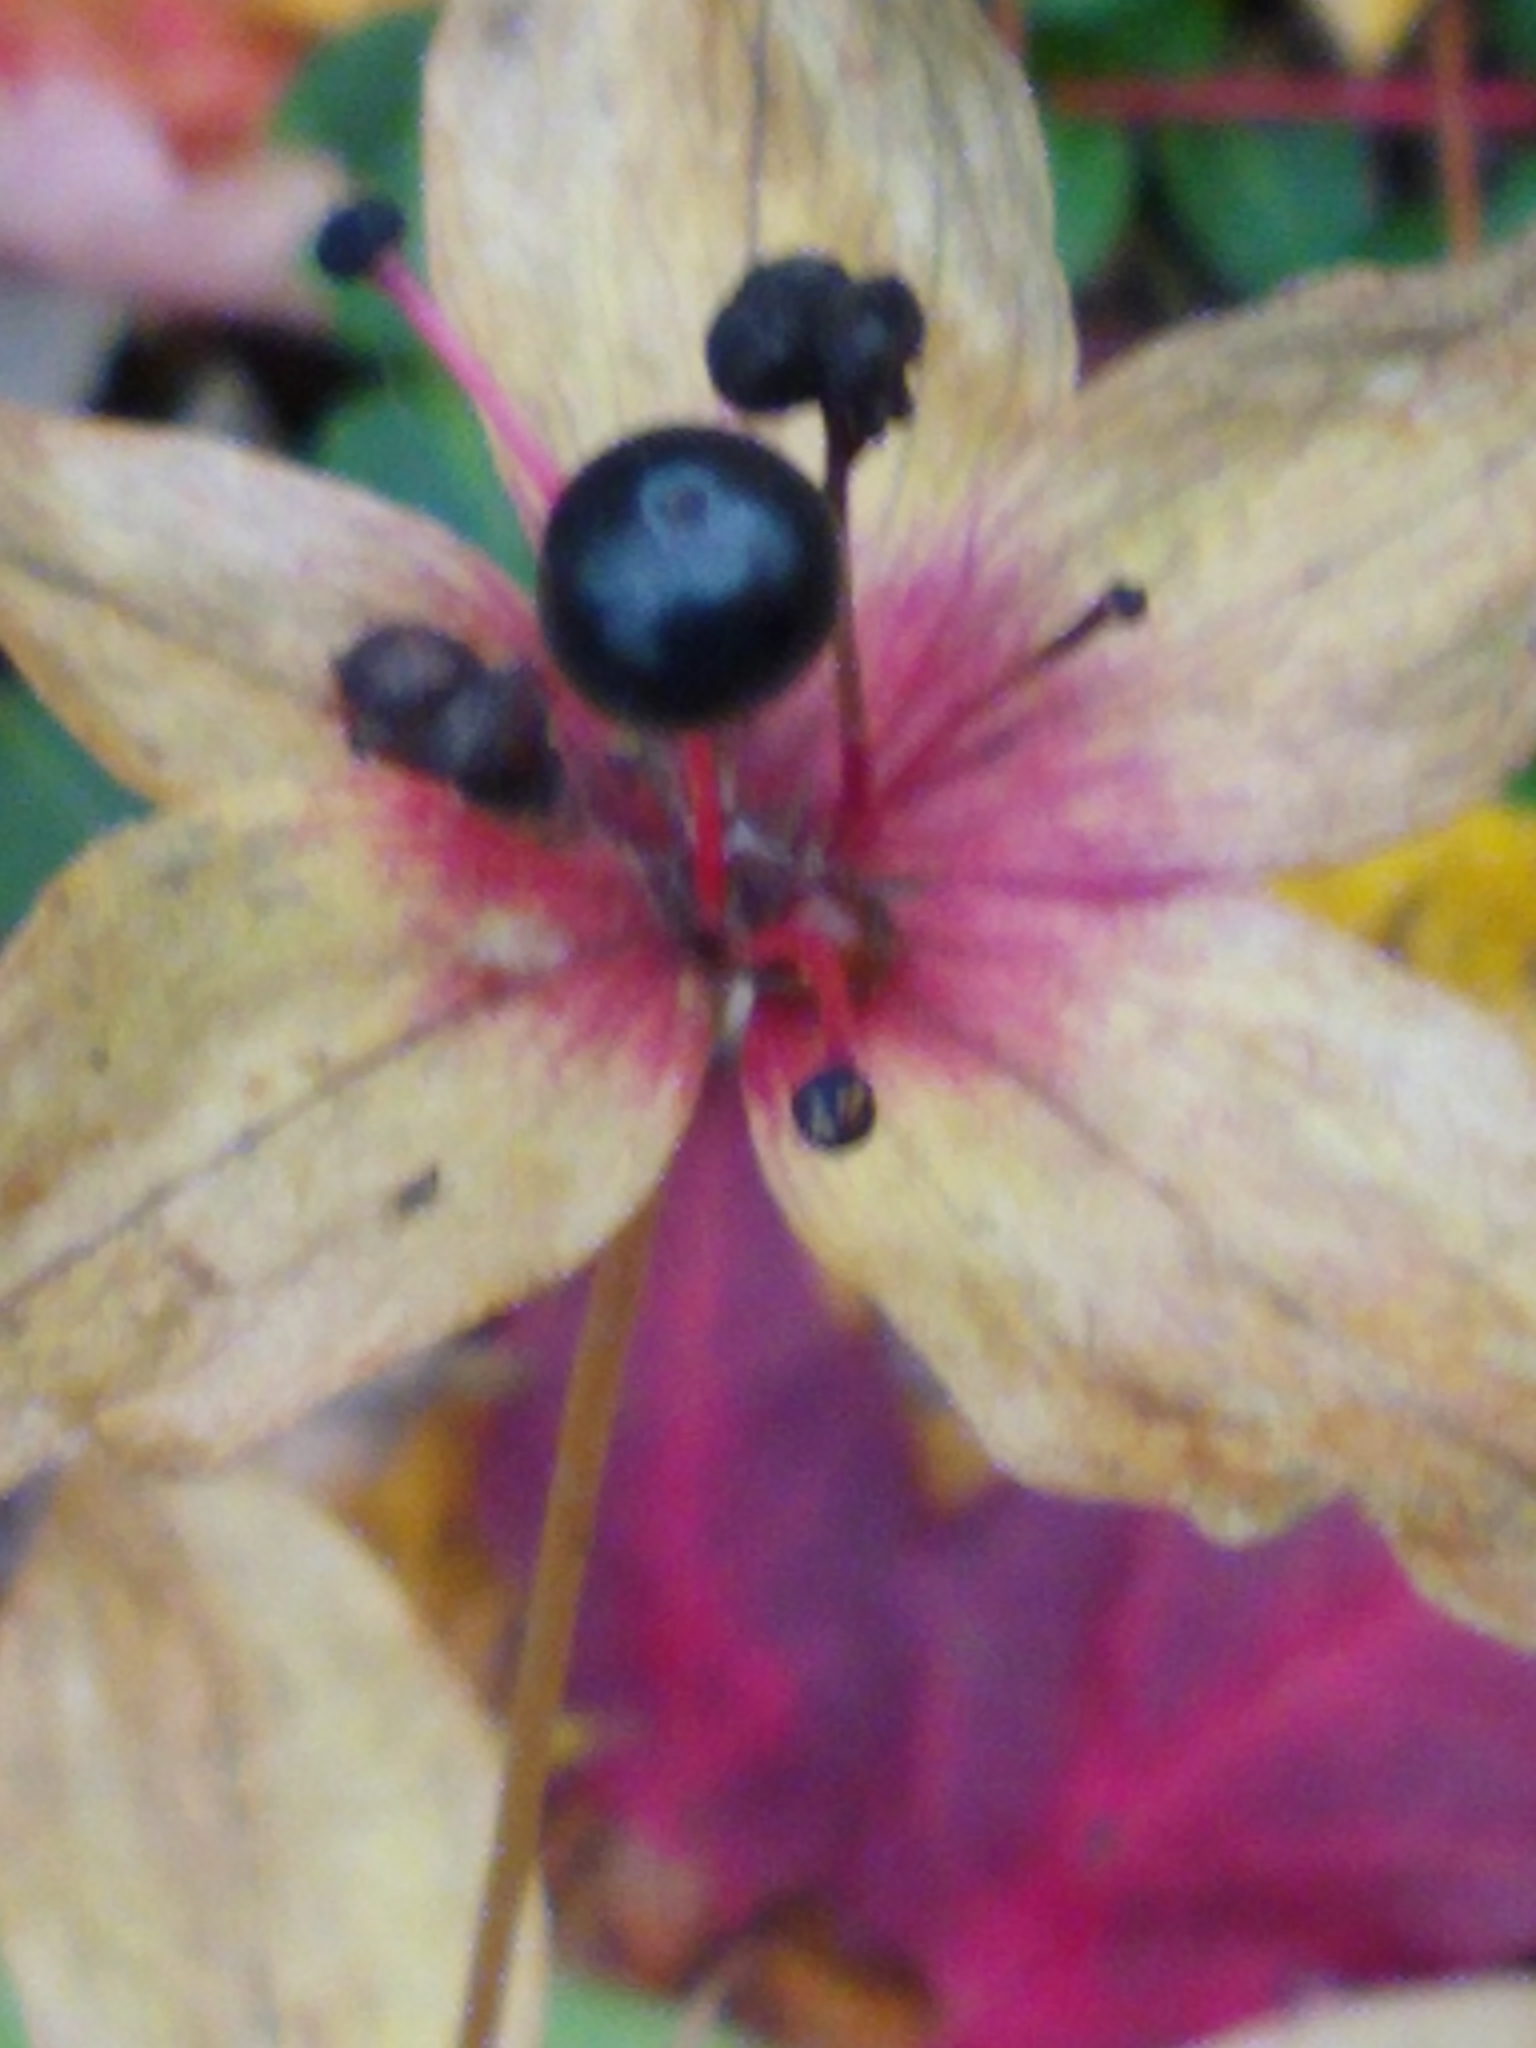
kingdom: Plantae
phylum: Tracheophyta
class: Liliopsida
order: Liliales
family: Liliaceae
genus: Medeola
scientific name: Medeola virginiana
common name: Indian cucumber-root
